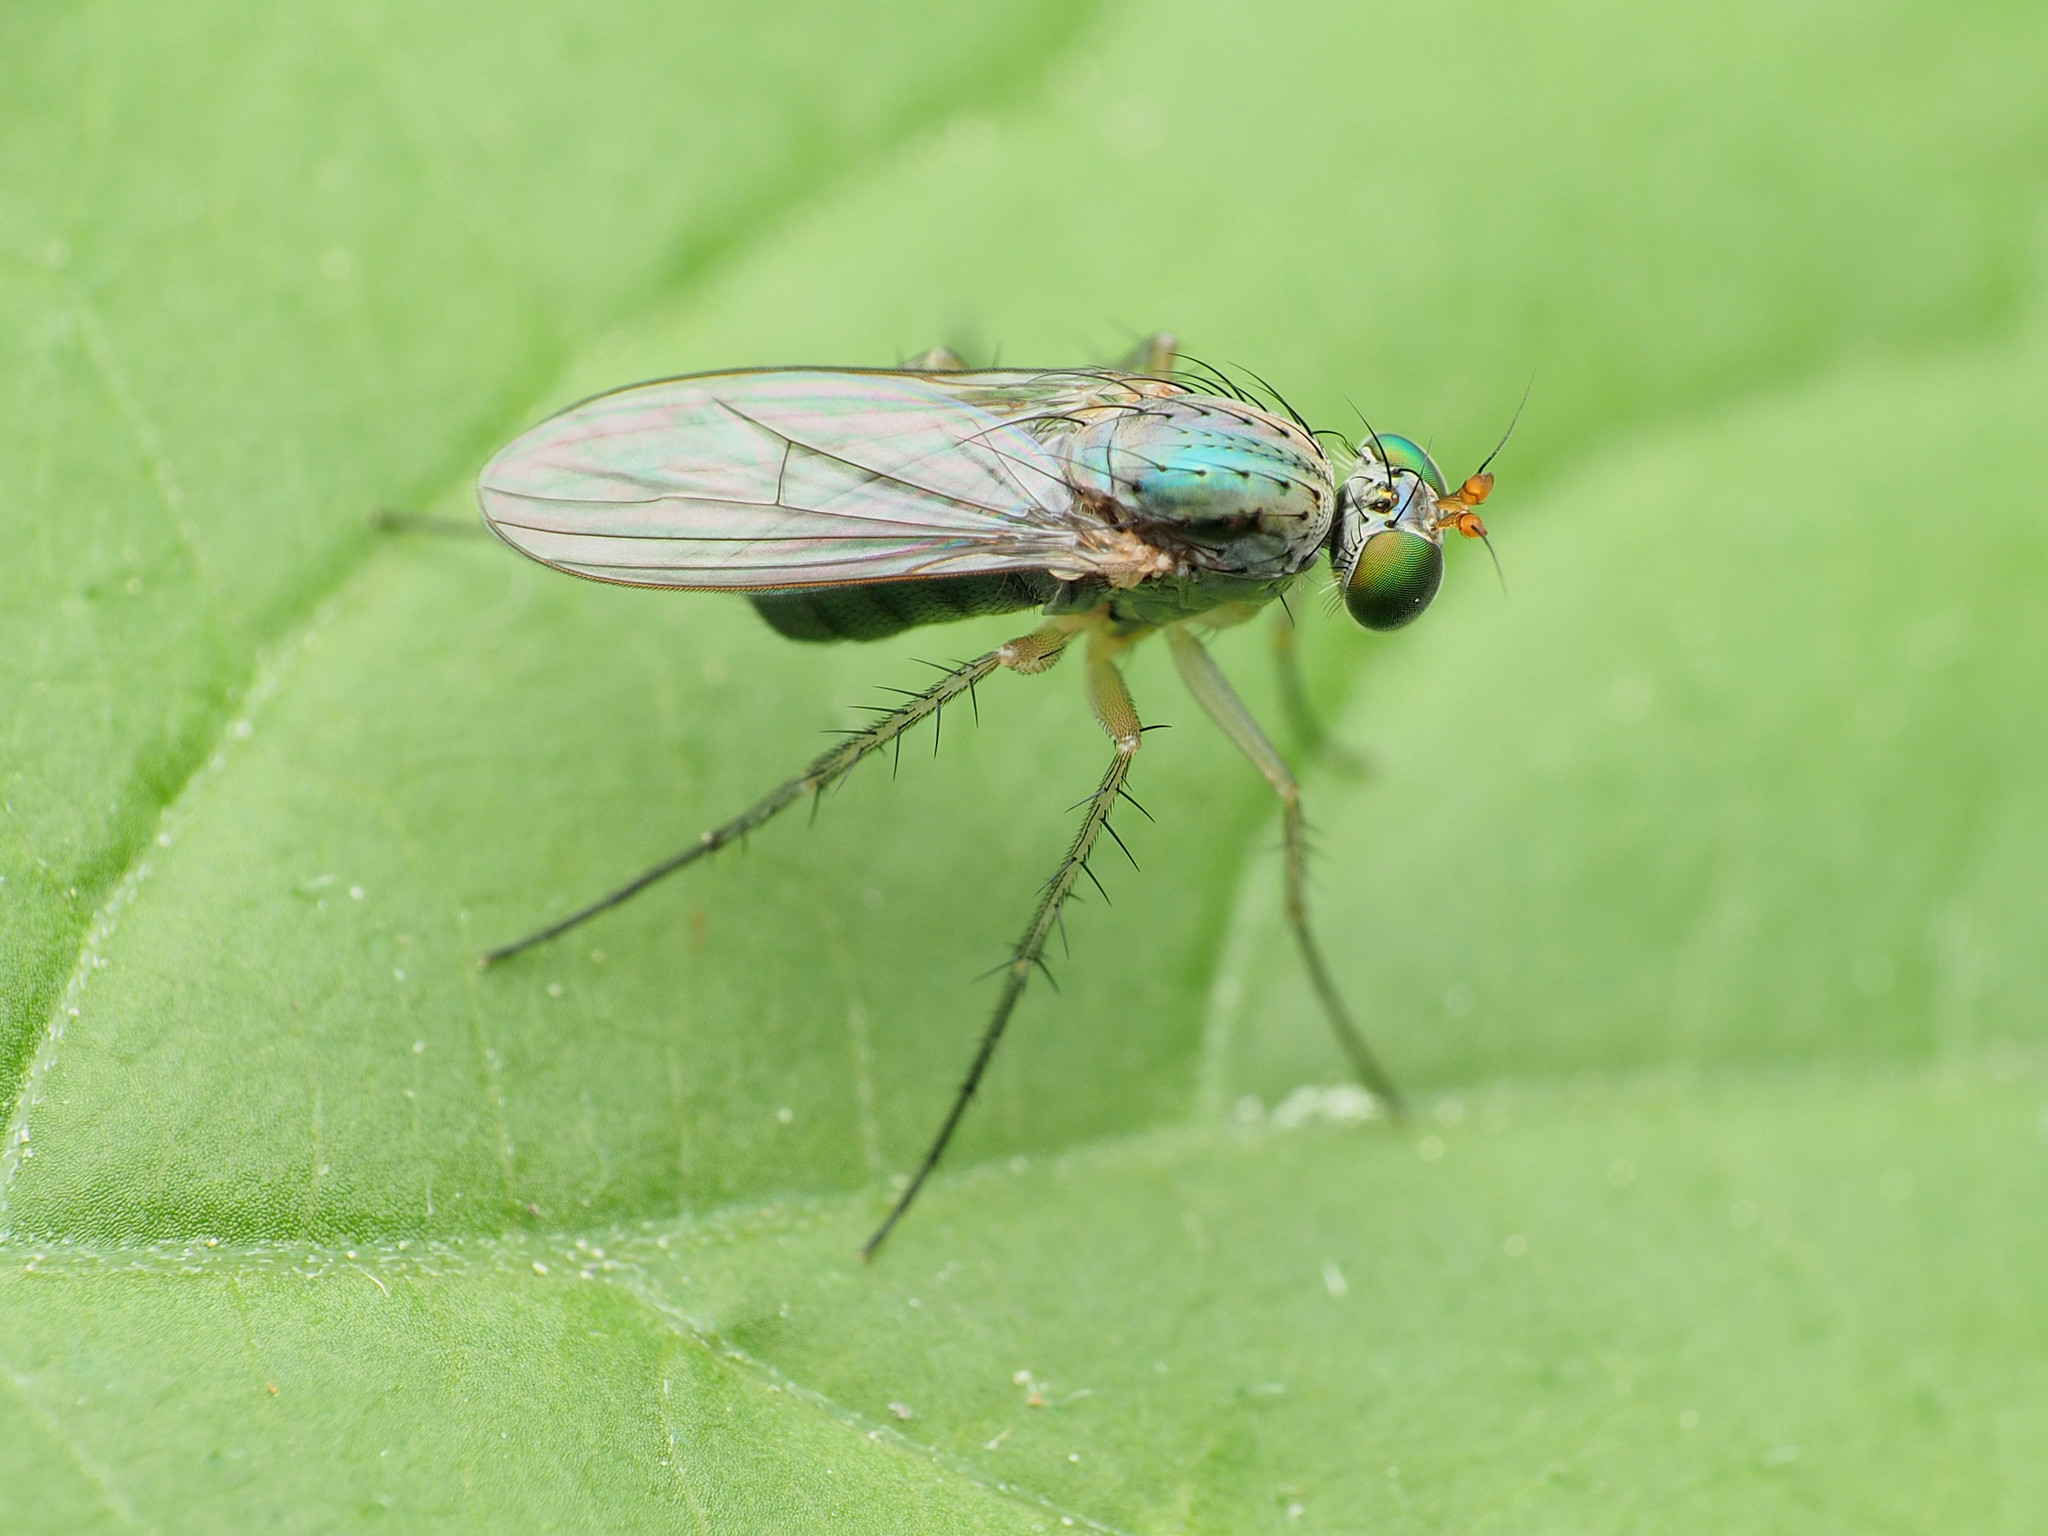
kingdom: Animalia
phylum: Arthropoda
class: Insecta
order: Diptera
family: Dolichopodidae
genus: Dolichopus
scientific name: Dolichopus
